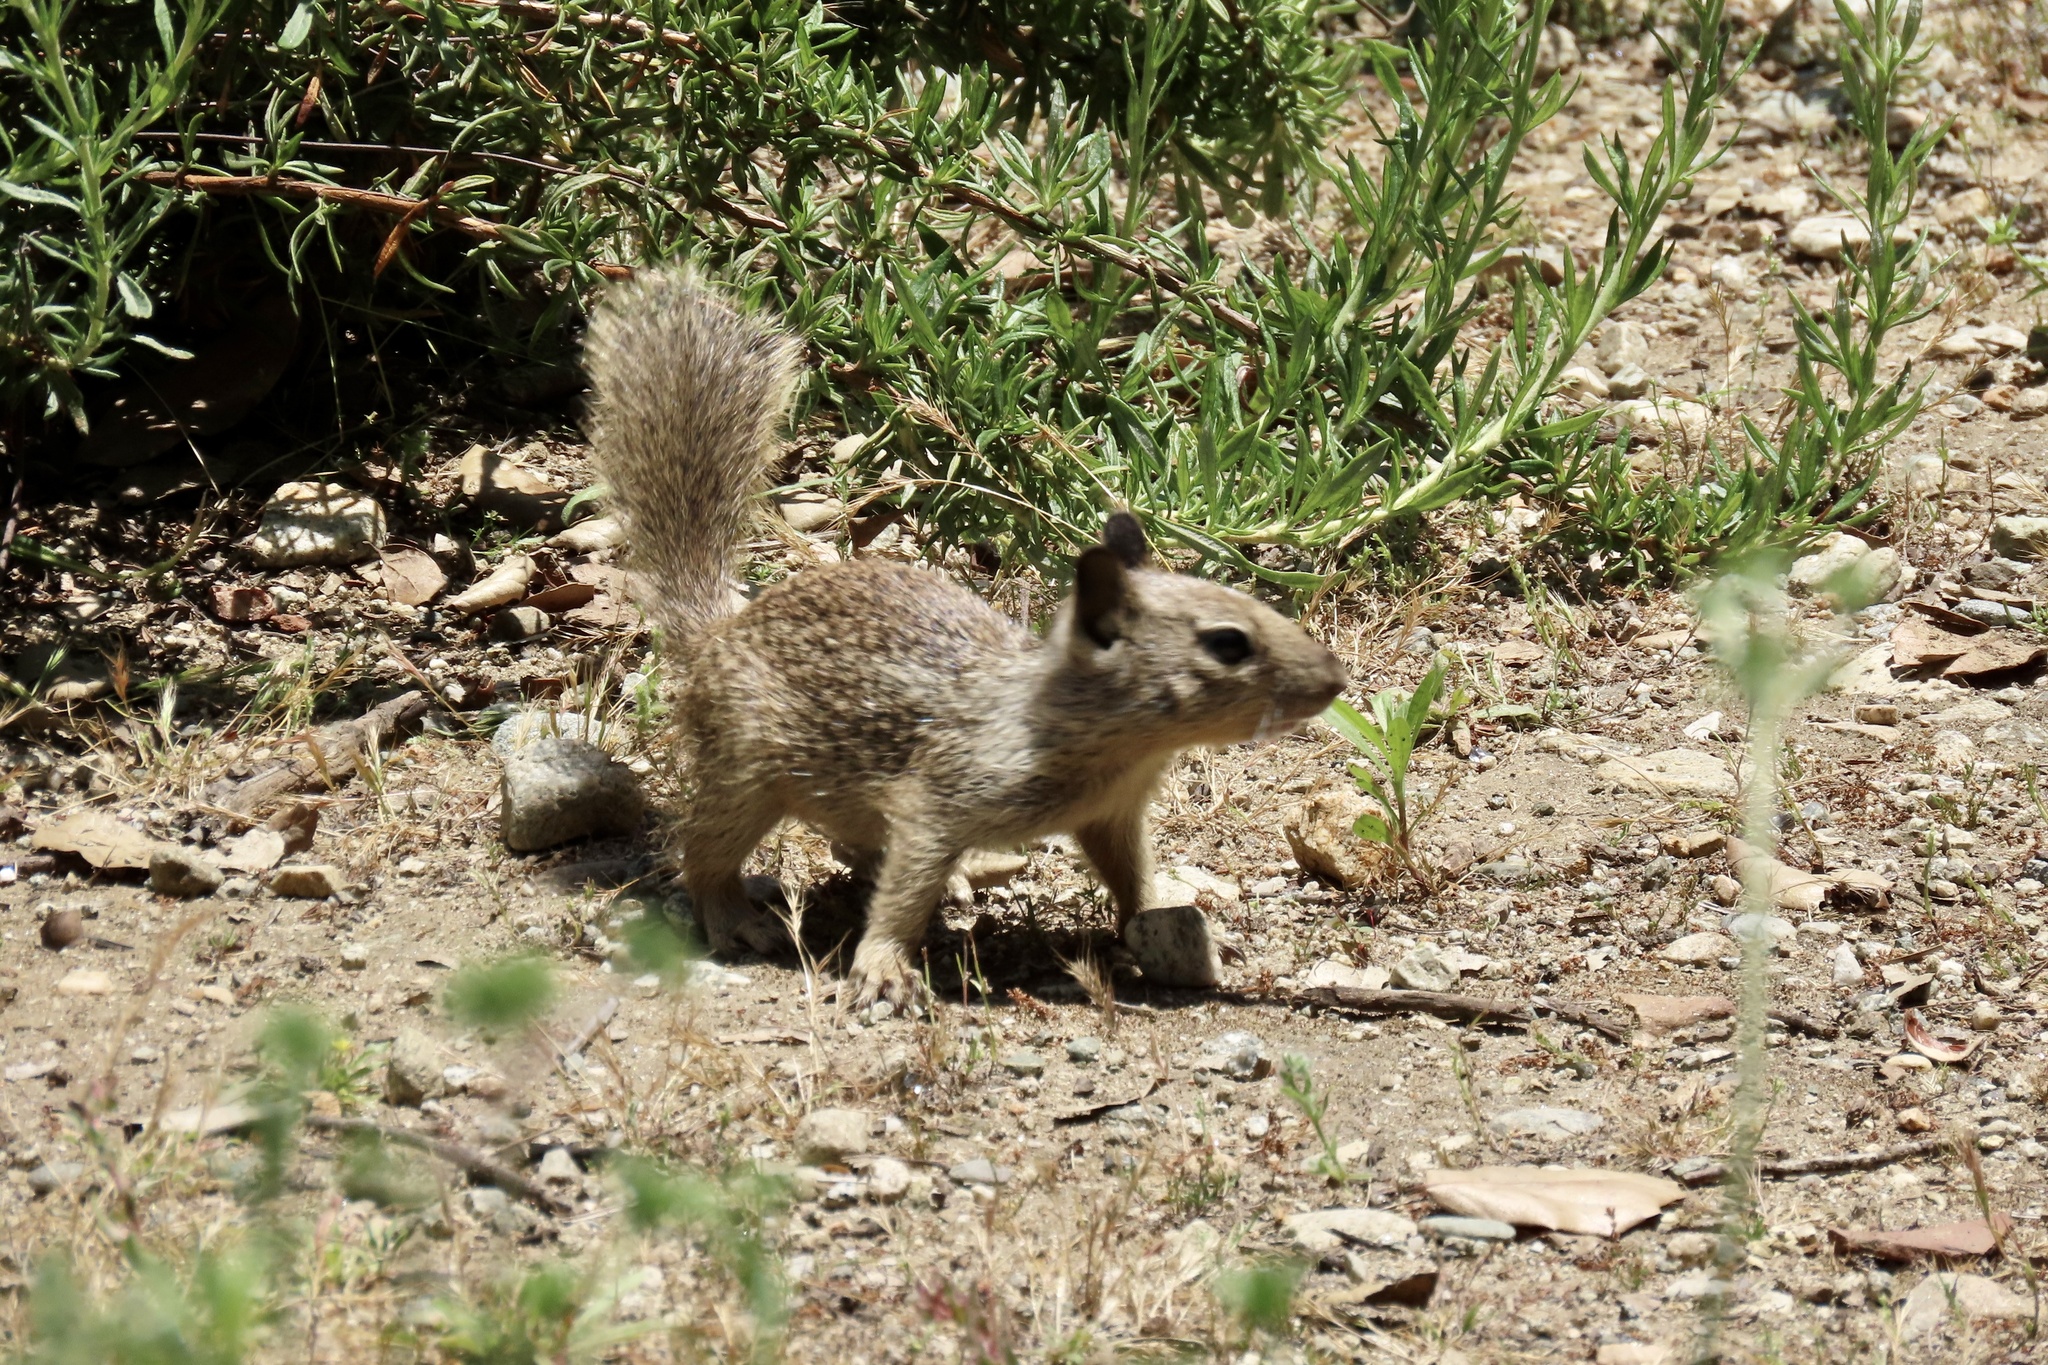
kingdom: Animalia
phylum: Chordata
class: Mammalia
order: Rodentia
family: Sciuridae
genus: Otospermophilus
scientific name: Otospermophilus beecheyi
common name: California ground squirrel
